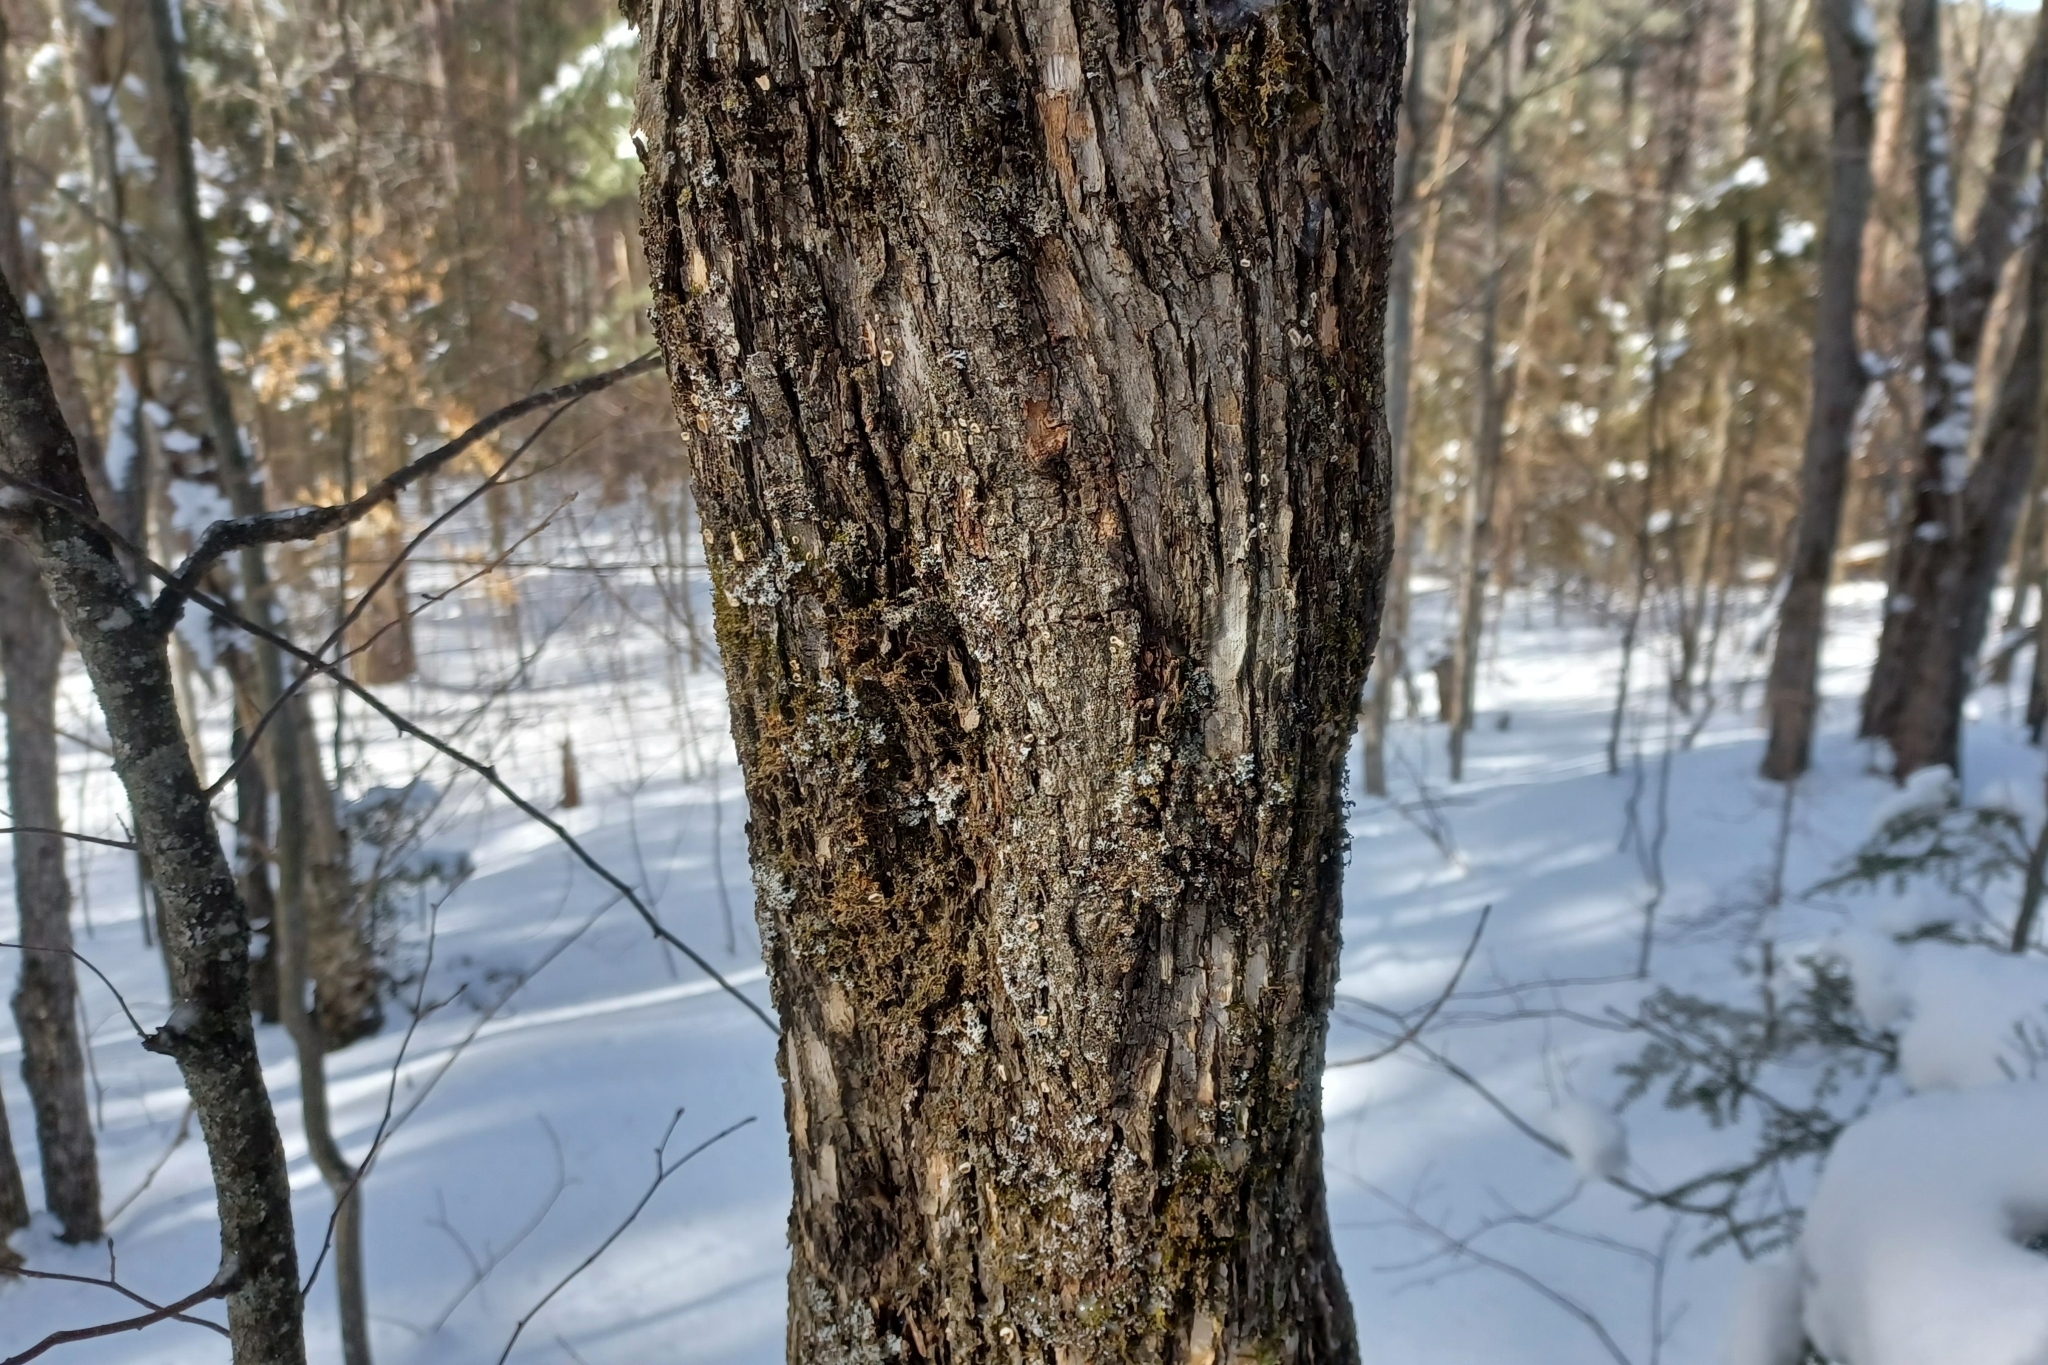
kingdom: Plantae
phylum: Tracheophyta
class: Magnoliopsida
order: Fagales
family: Betulaceae
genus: Ostrya
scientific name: Ostrya virginiana
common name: Ironwood
